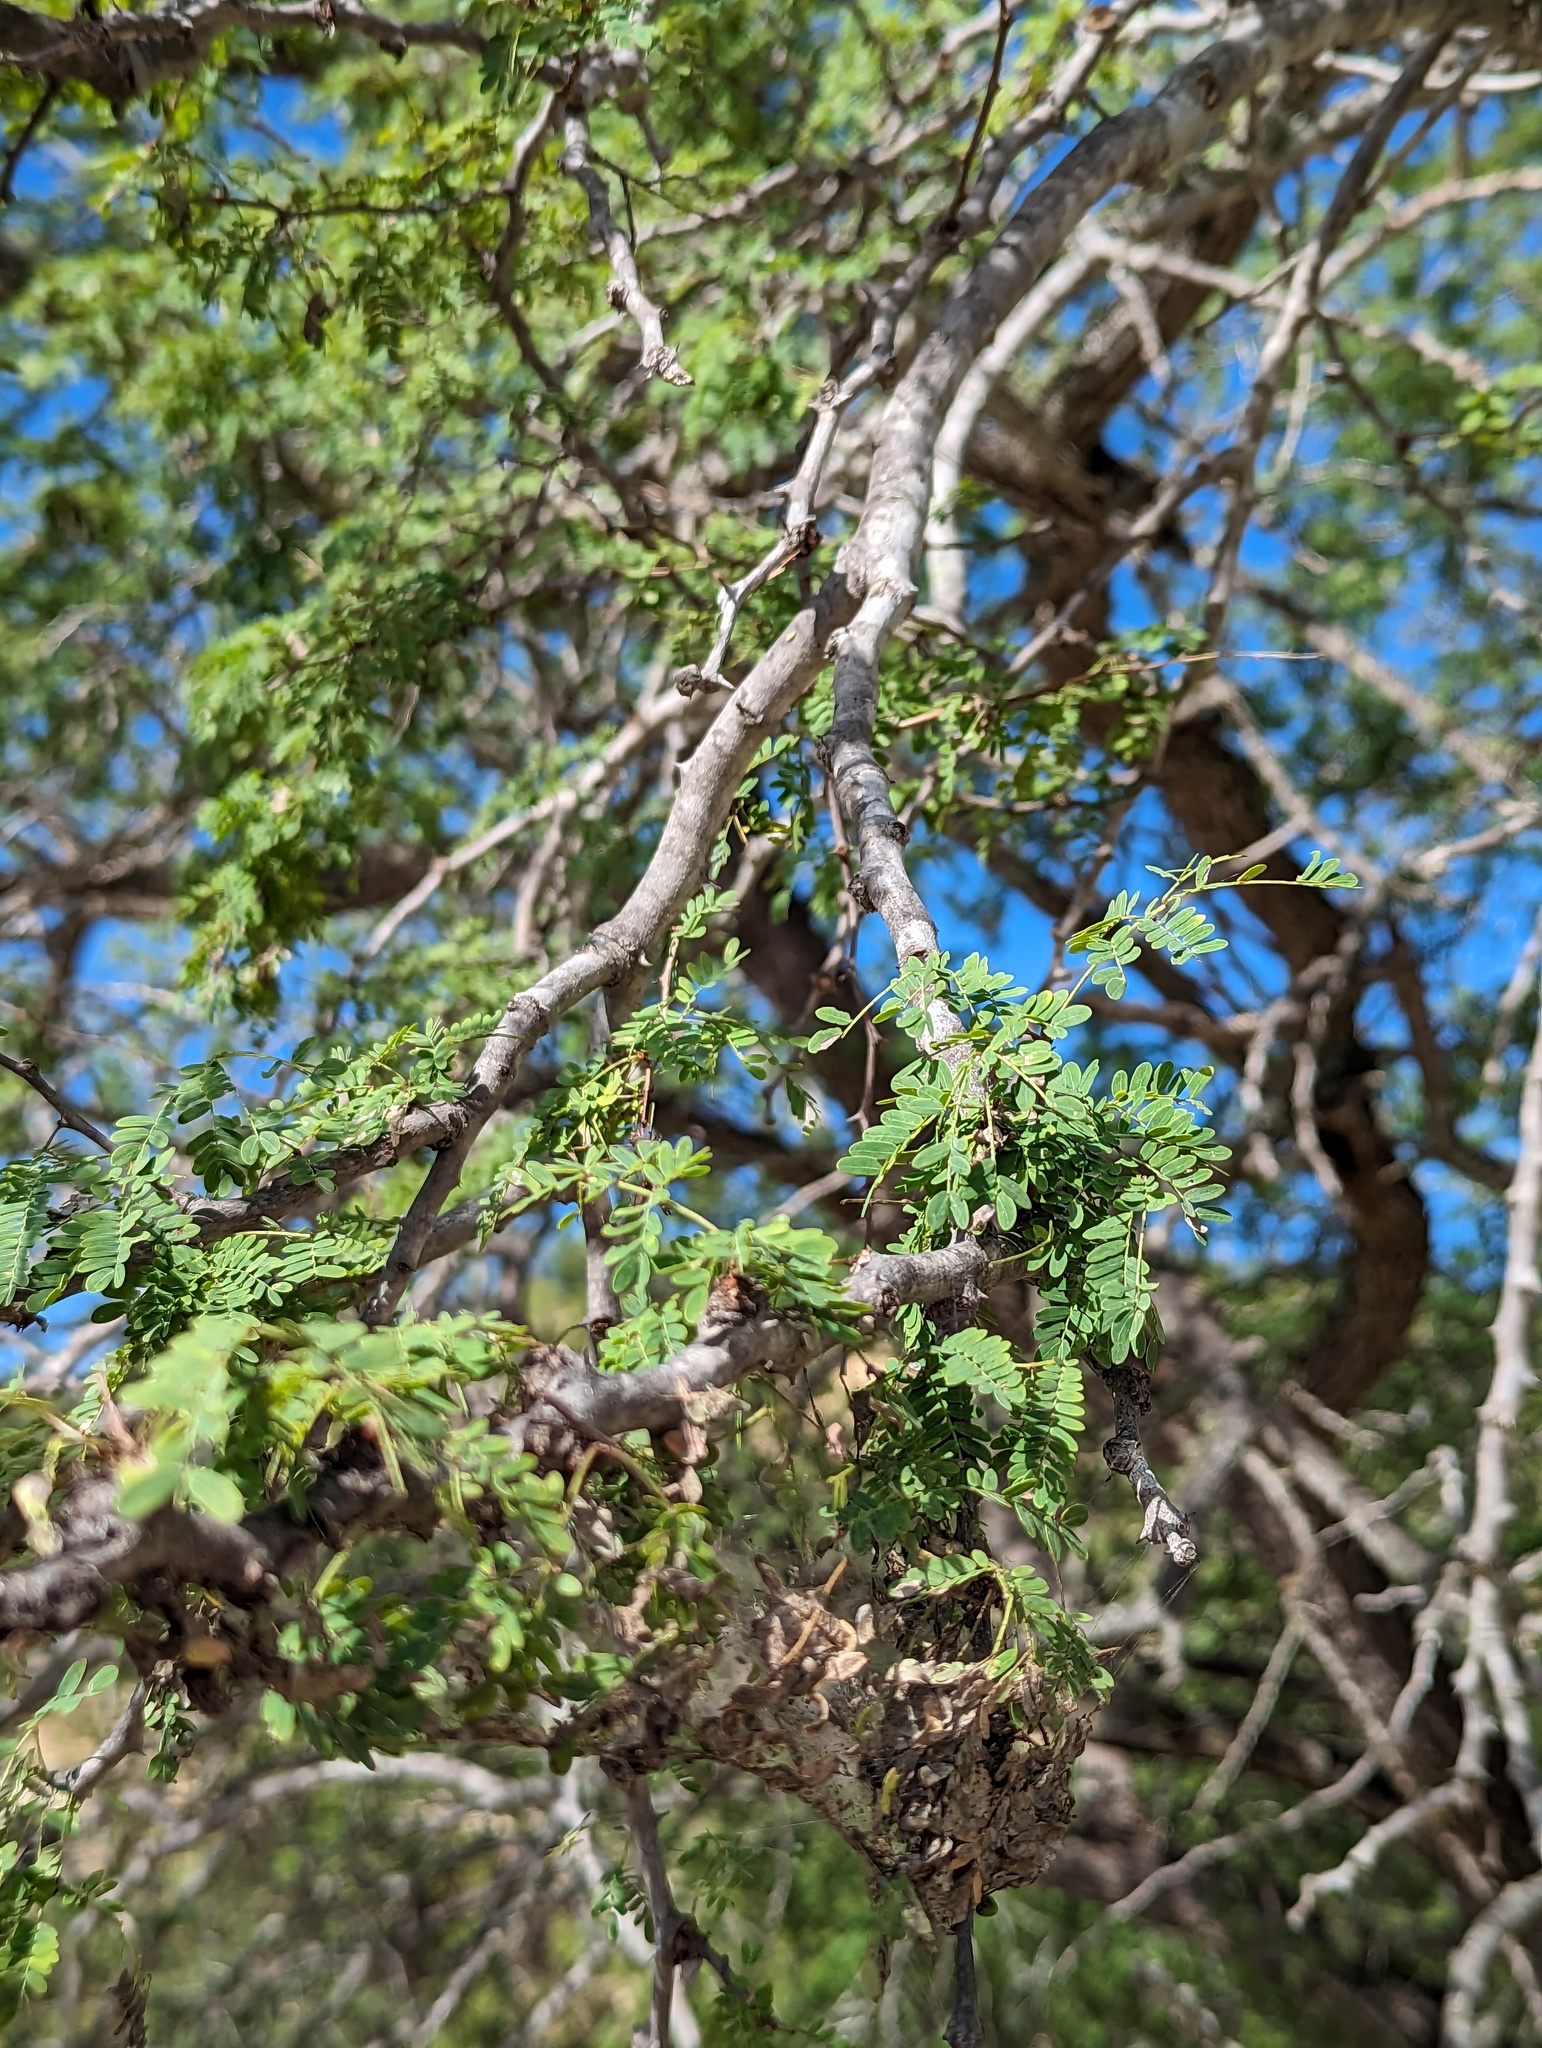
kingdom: Plantae
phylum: Tracheophyta
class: Magnoliopsida
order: Fabales
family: Fabaceae
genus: Havardia
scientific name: Havardia mexicana
